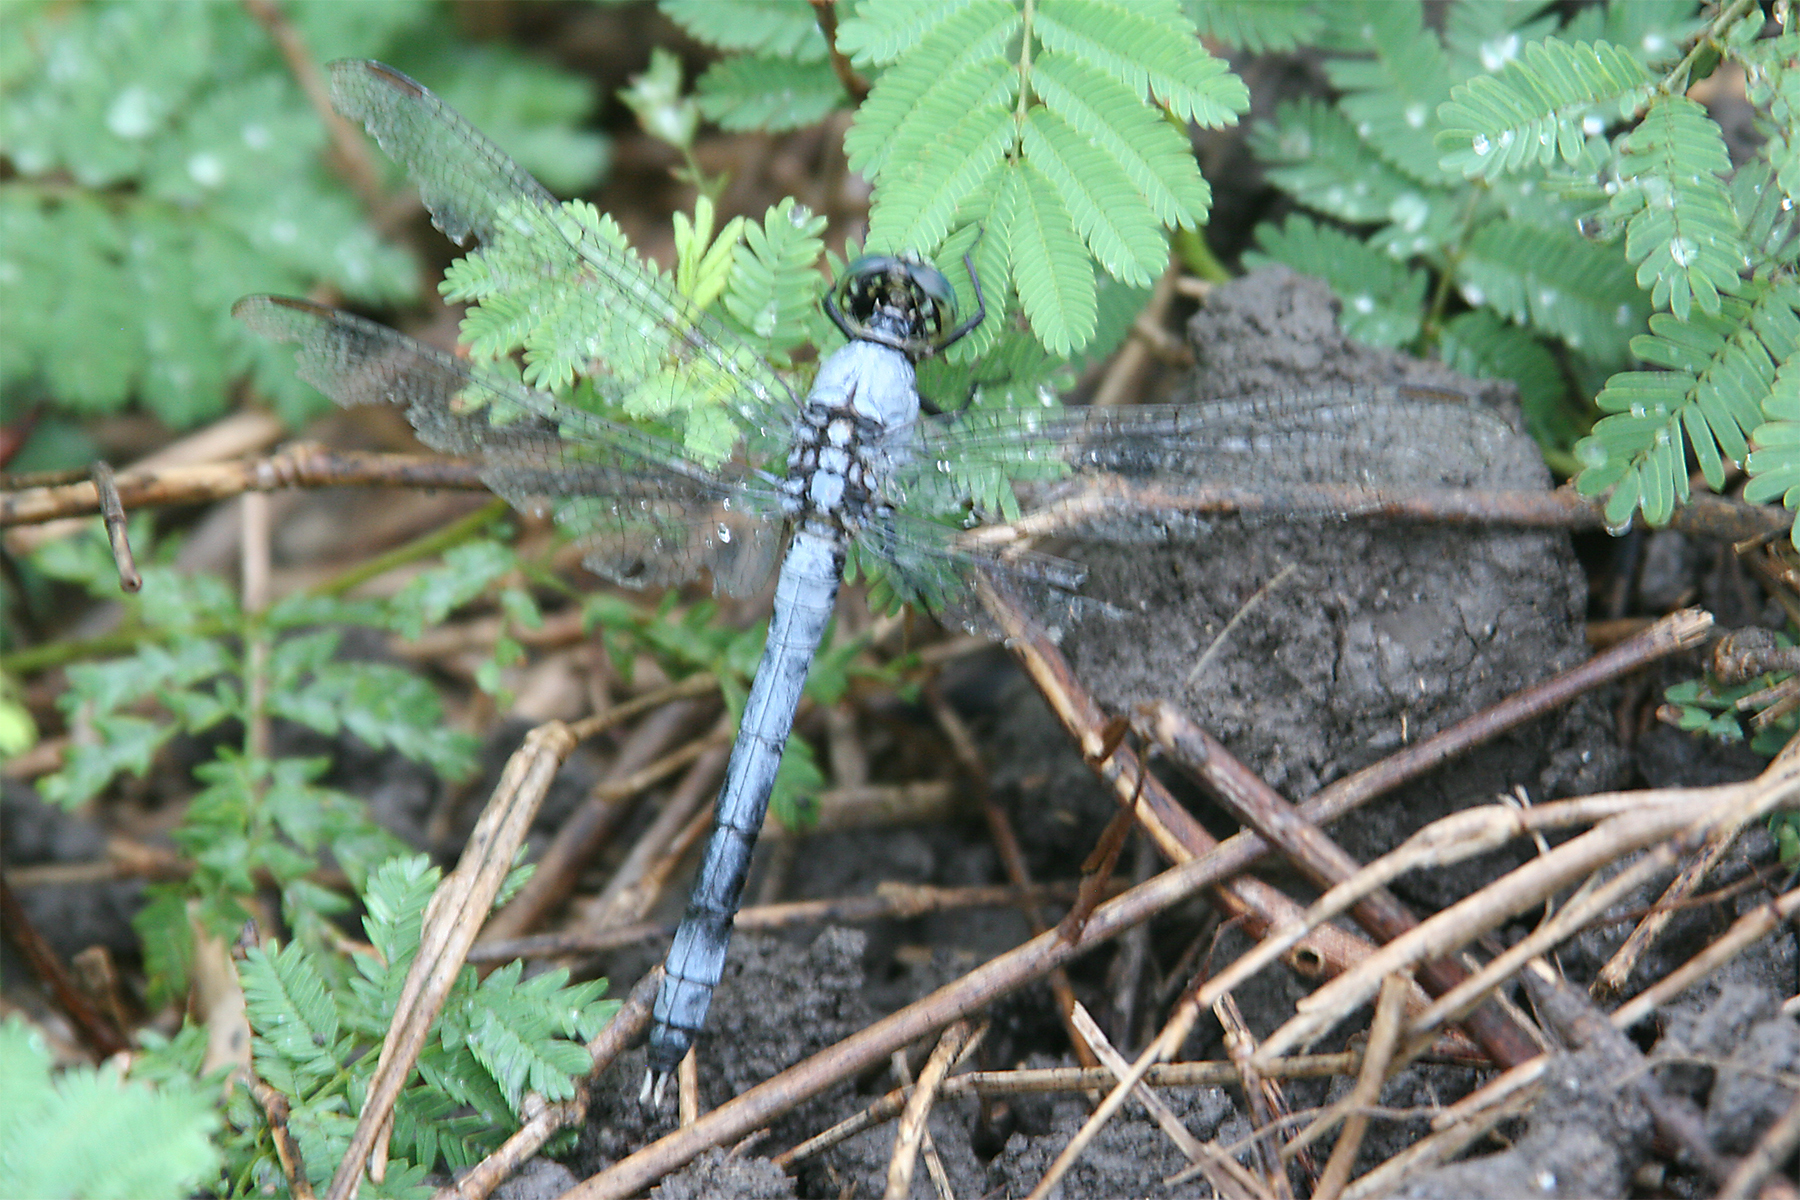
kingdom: Animalia
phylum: Arthropoda
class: Insecta
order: Odonata
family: Libellulidae
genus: Erythemis
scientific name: Erythemis simplicicollis
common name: Eastern pondhawk
